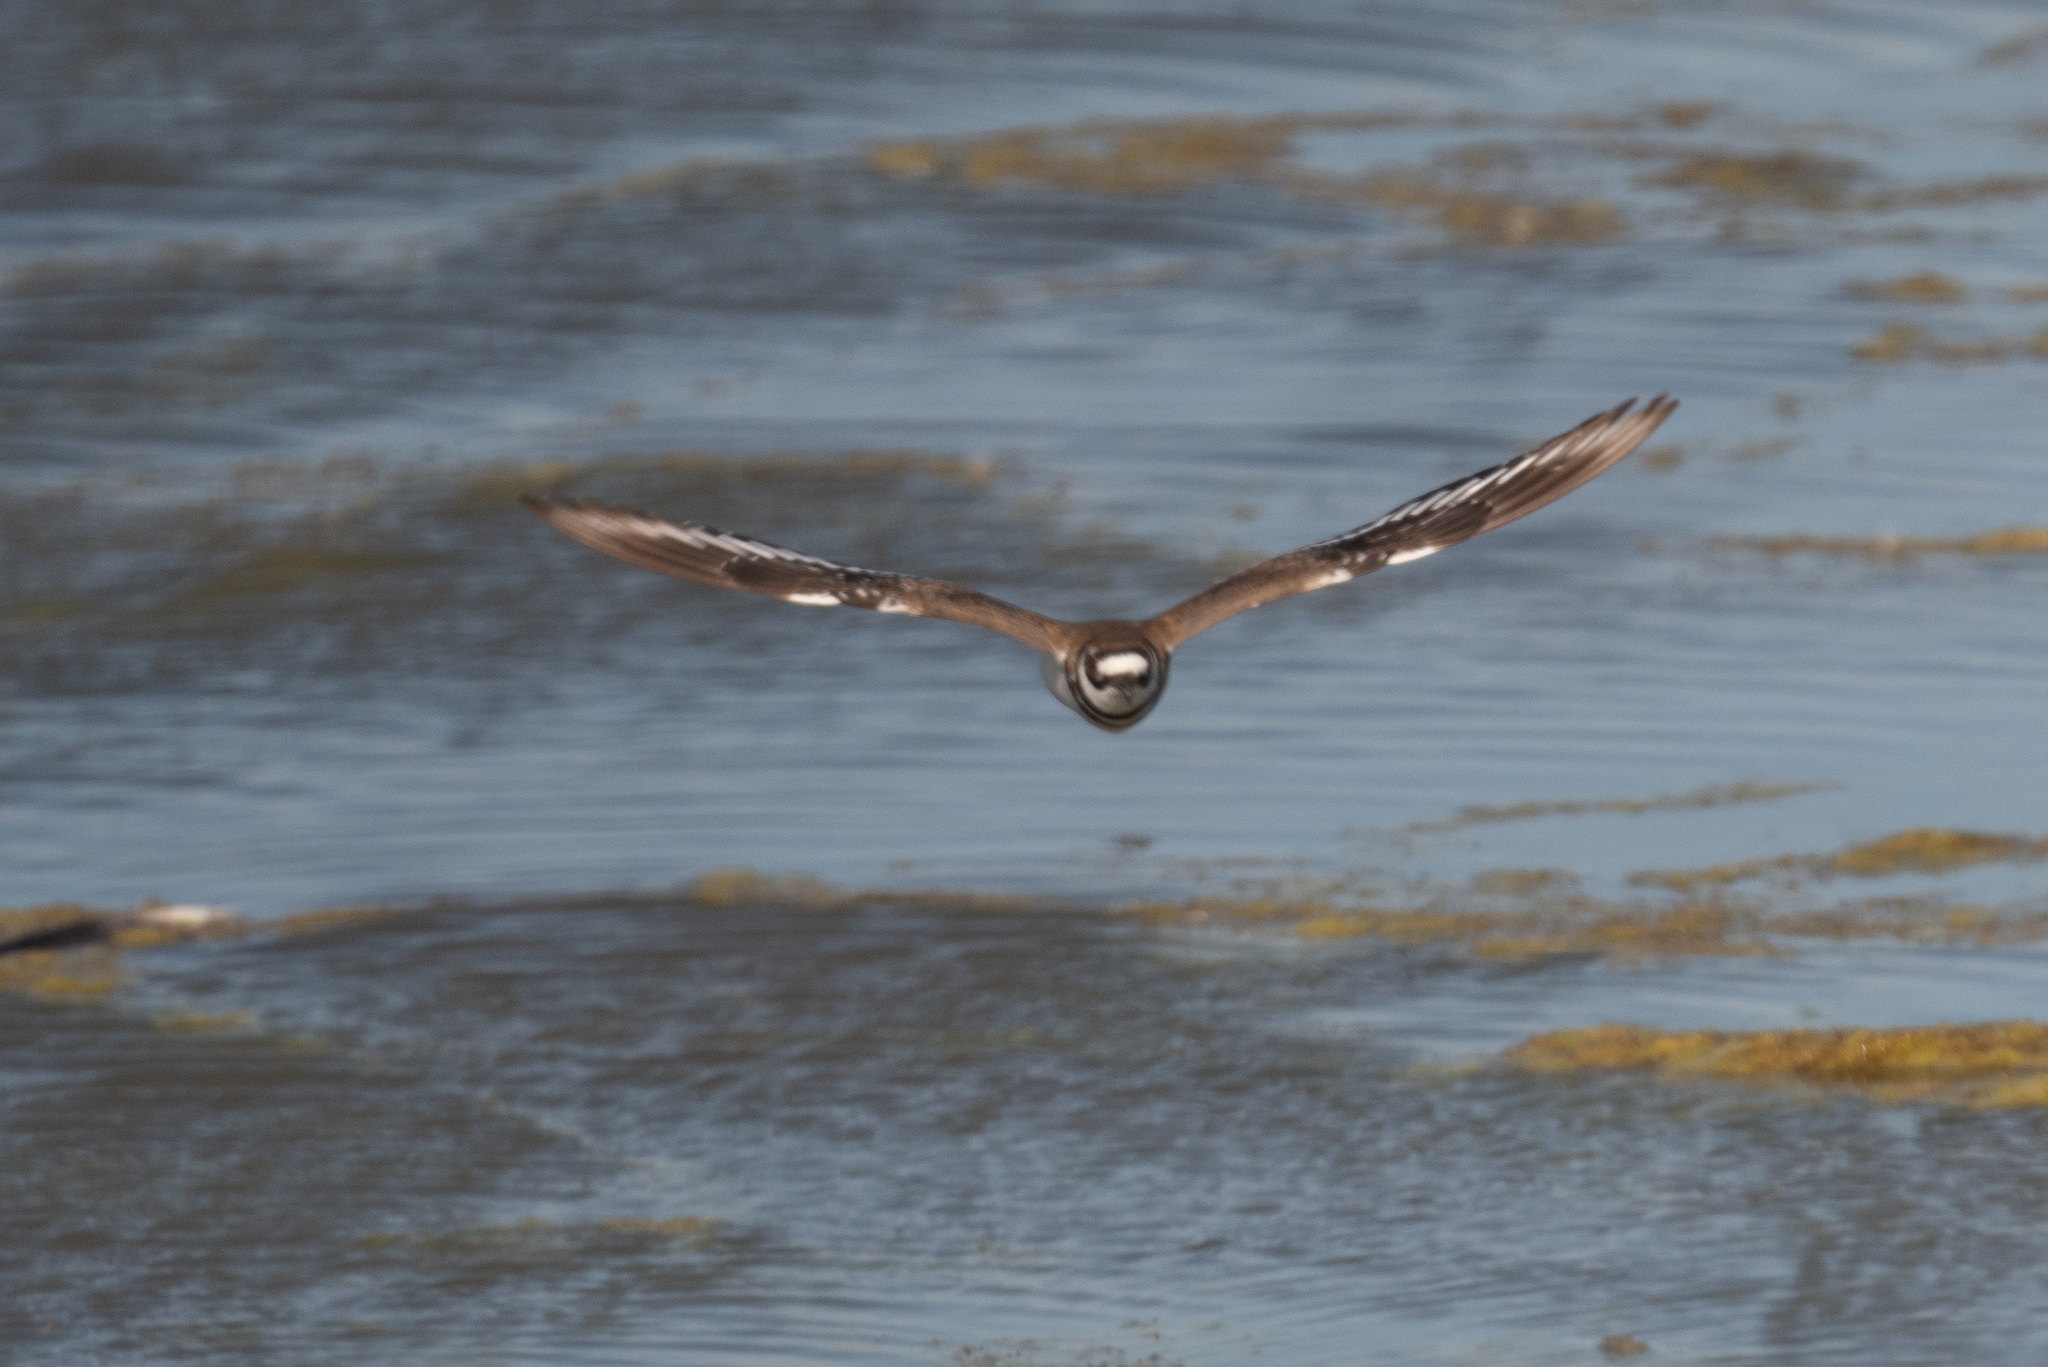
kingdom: Animalia
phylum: Chordata
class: Aves
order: Charadriiformes
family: Charadriidae
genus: Charadrius
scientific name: Charadrius vociferus
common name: Killdeer
